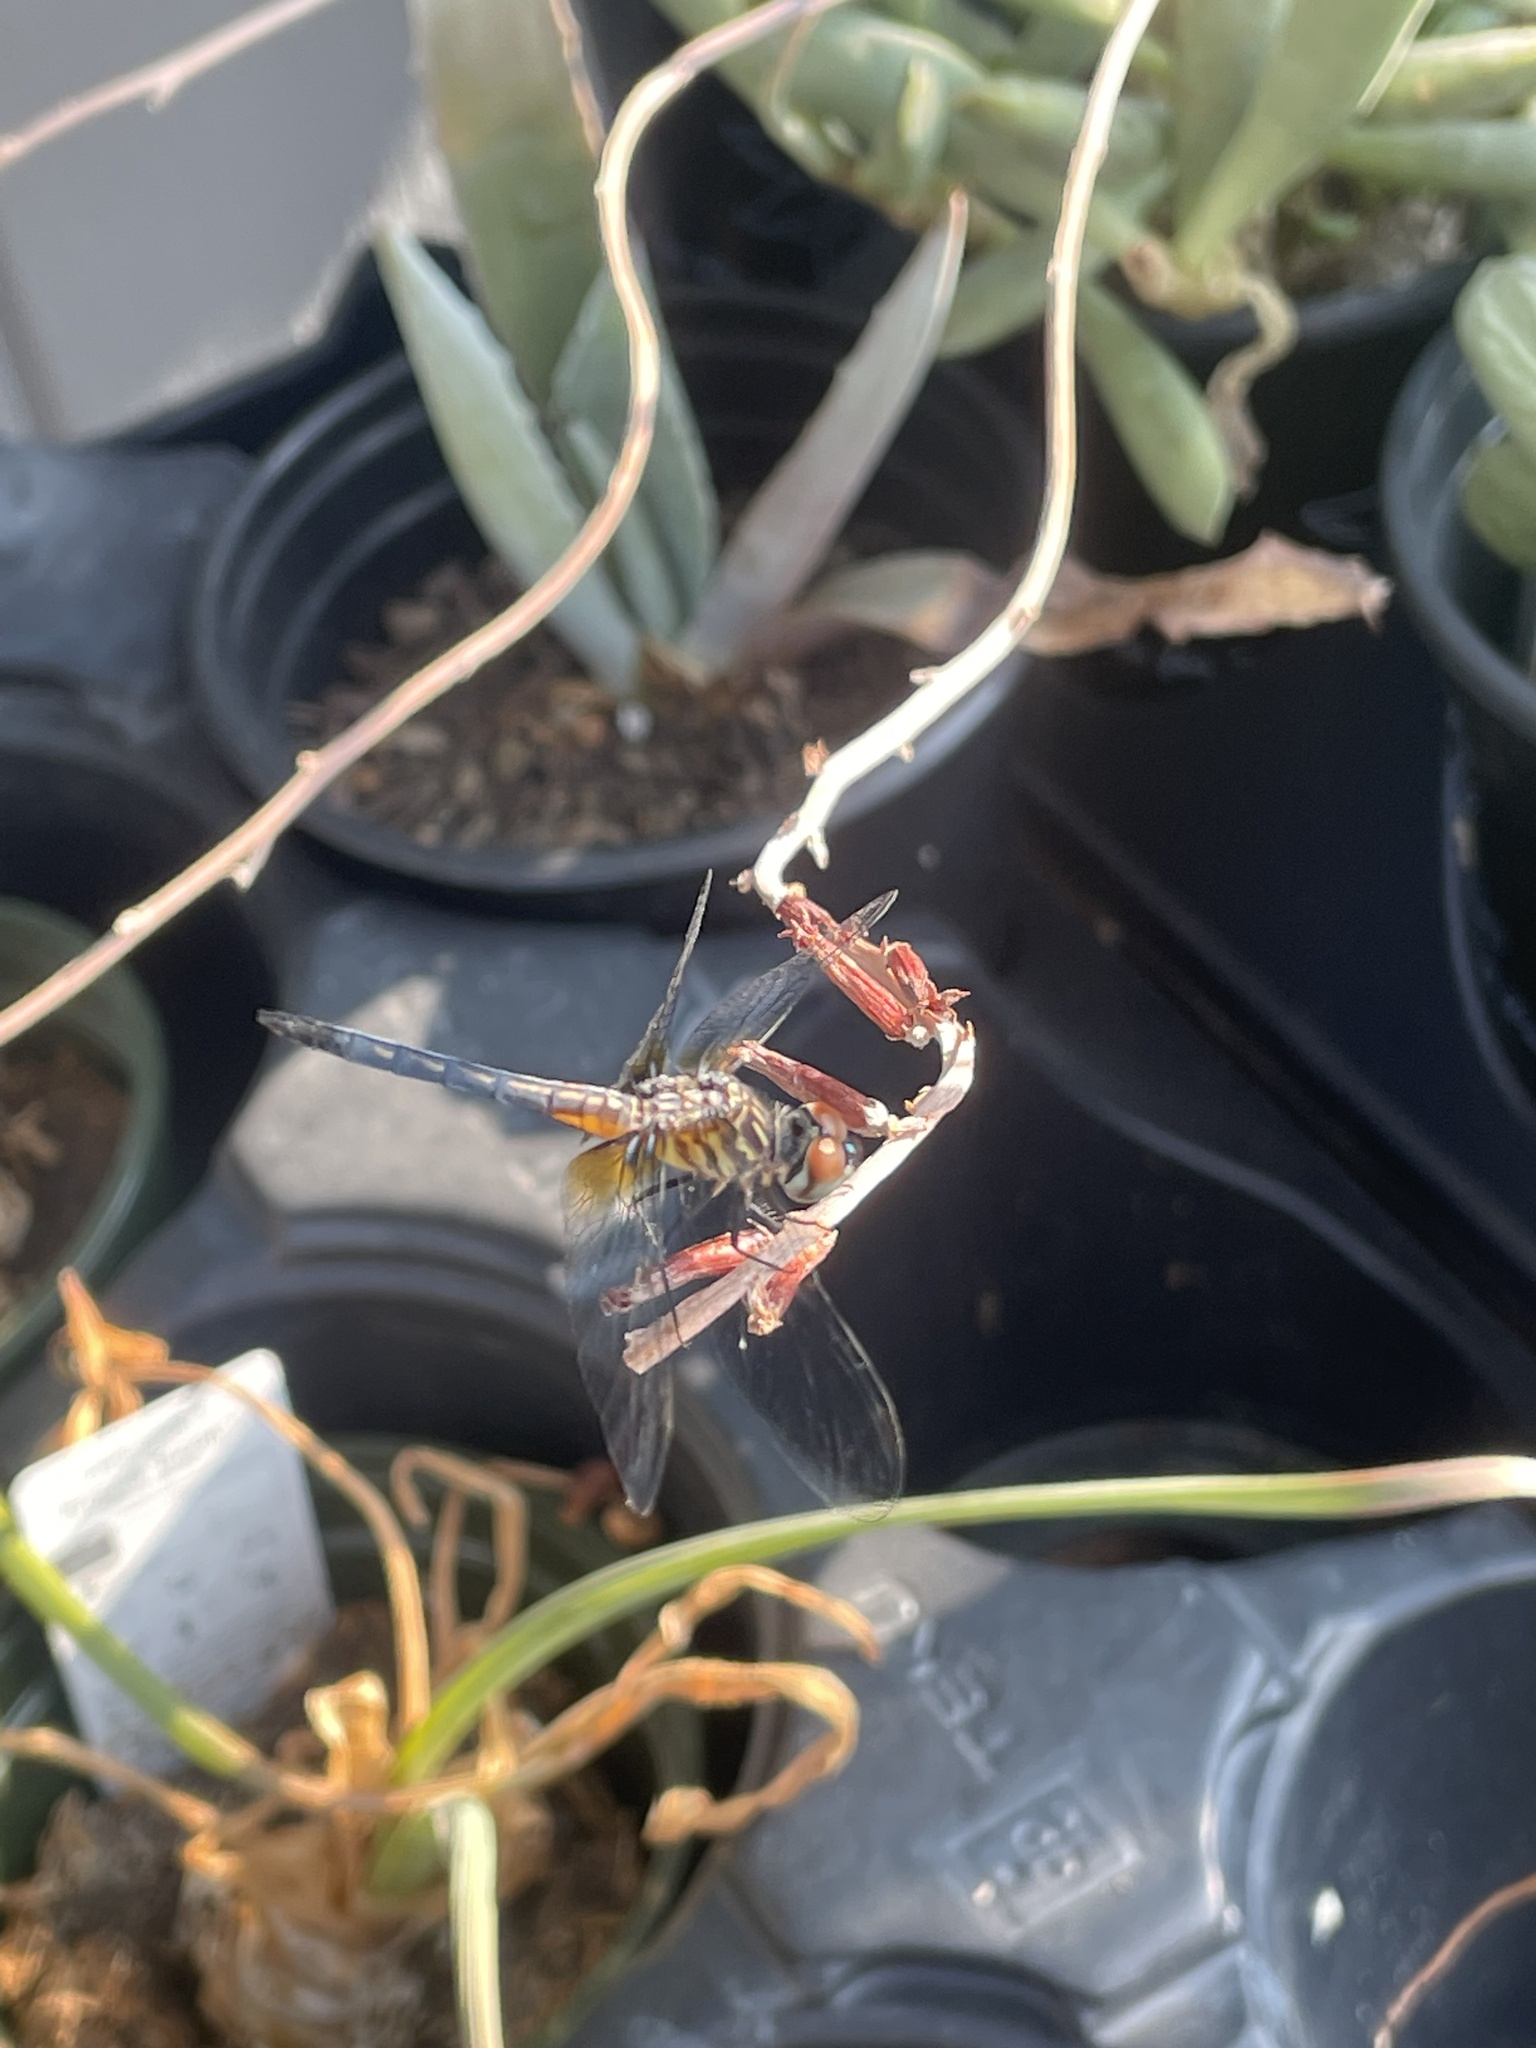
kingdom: Animalia
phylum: Arthropoda
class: Insecta
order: Odonata
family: Libellulidae
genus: Pachydiplax
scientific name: Pachydiplax longipennis
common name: Blue dasher
